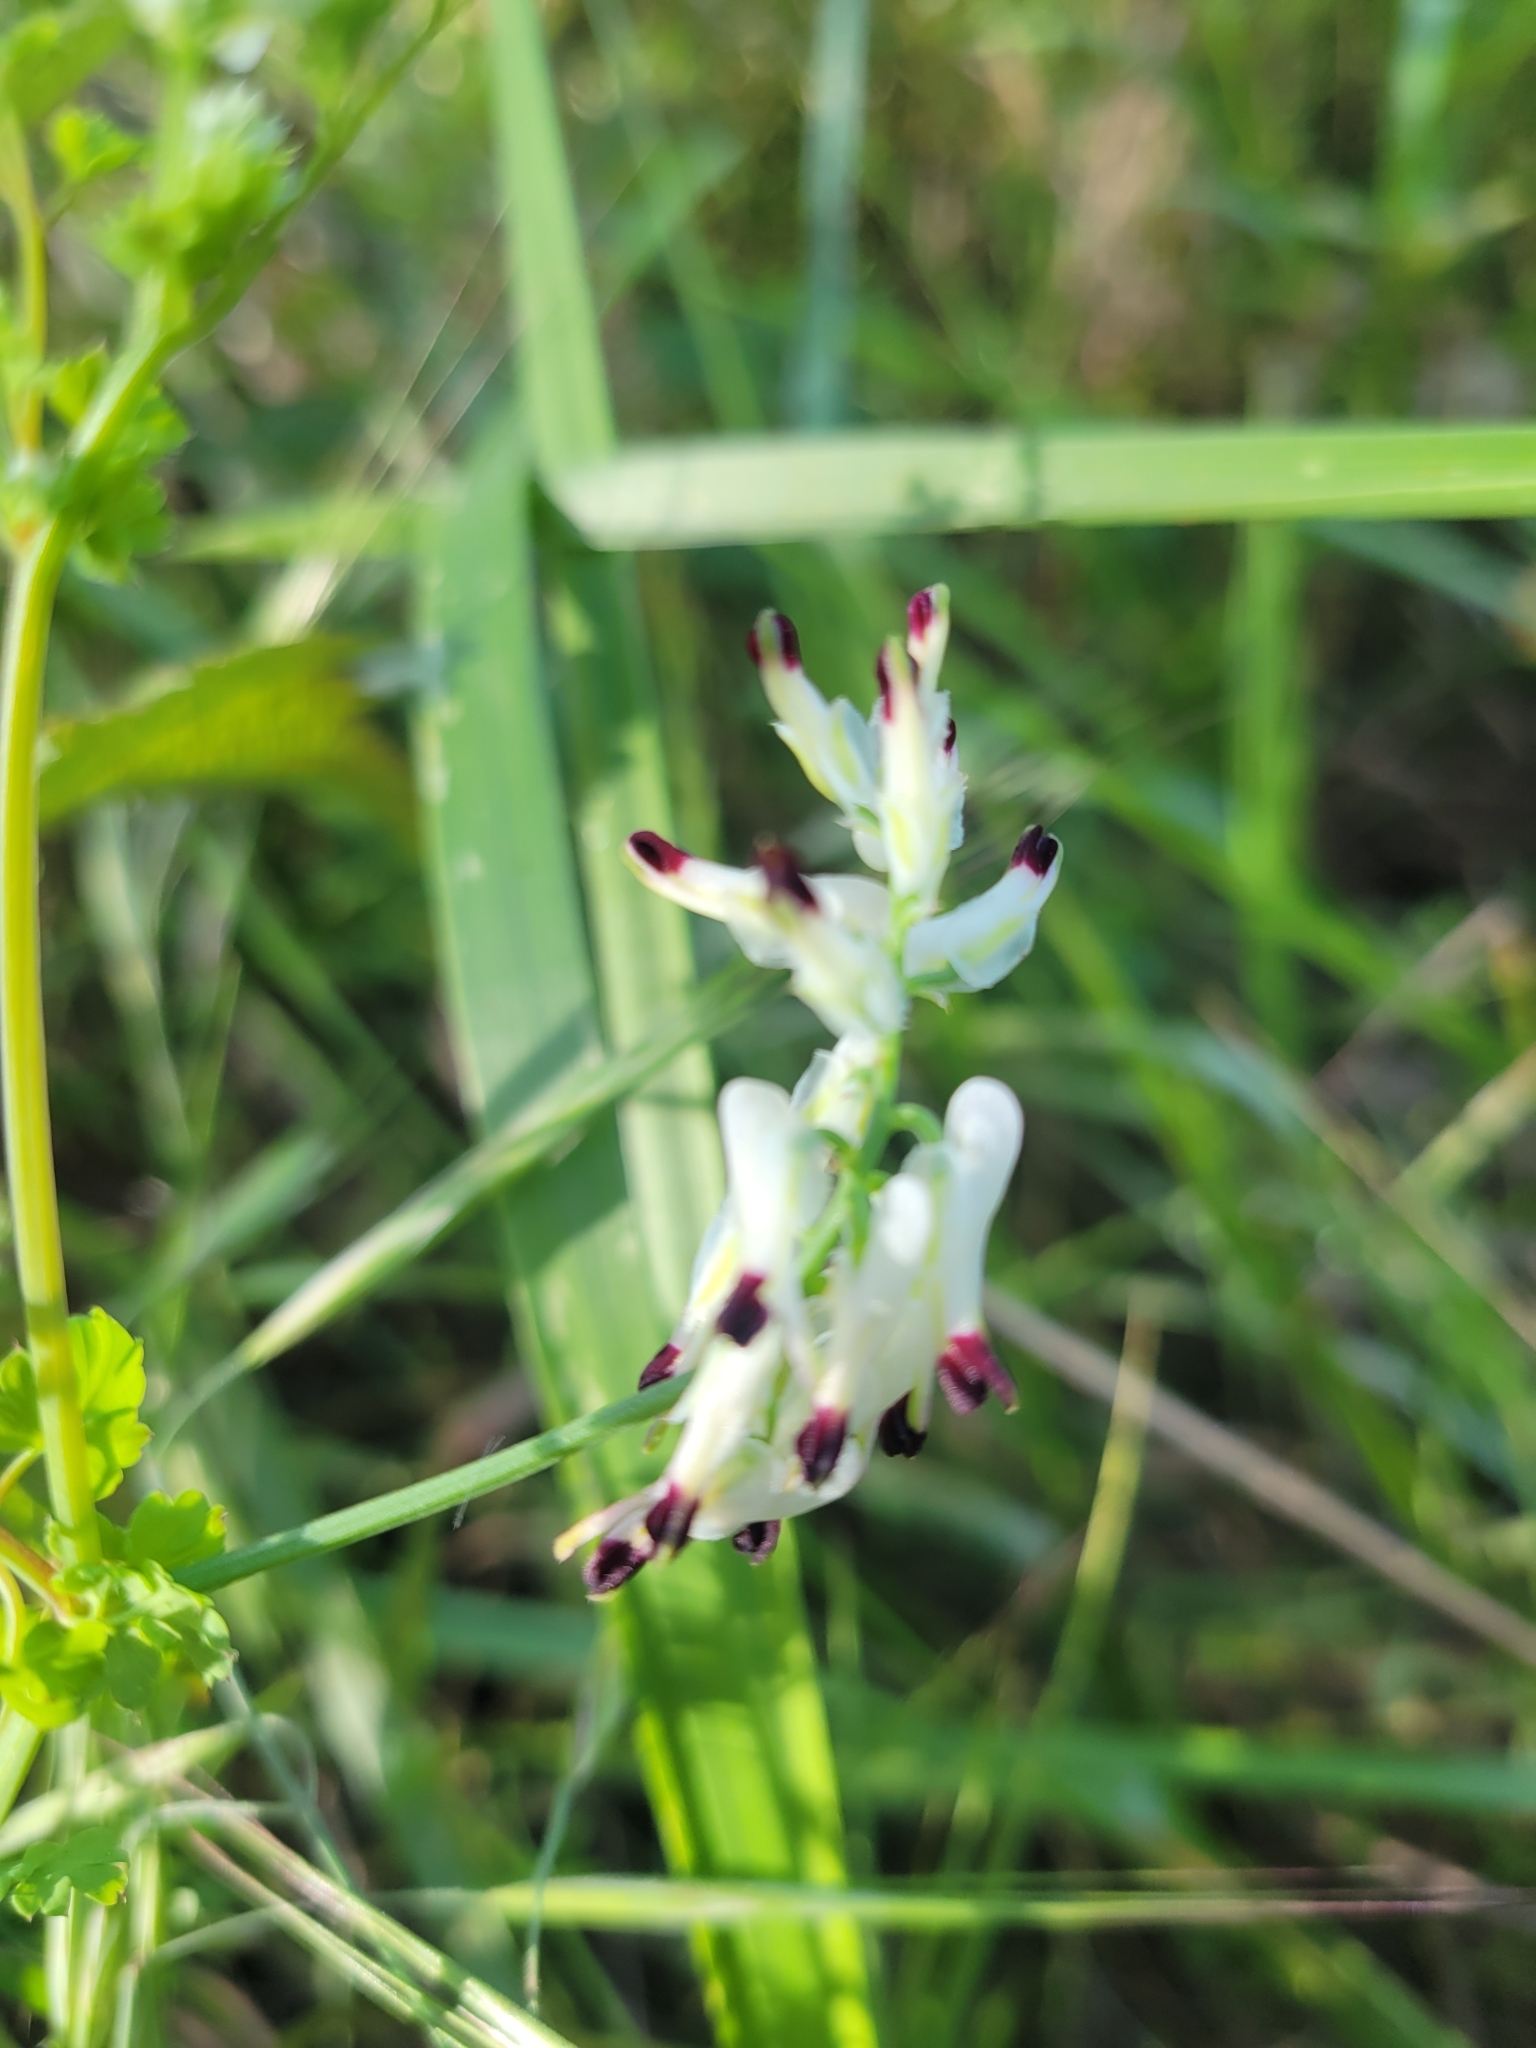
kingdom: Plantae
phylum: Tracheophyta
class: Magnoliopsida
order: Ranunculales
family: Papaveraceae
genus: Fumaria
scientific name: Fumaria capreolata
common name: White ramping-fumitory
